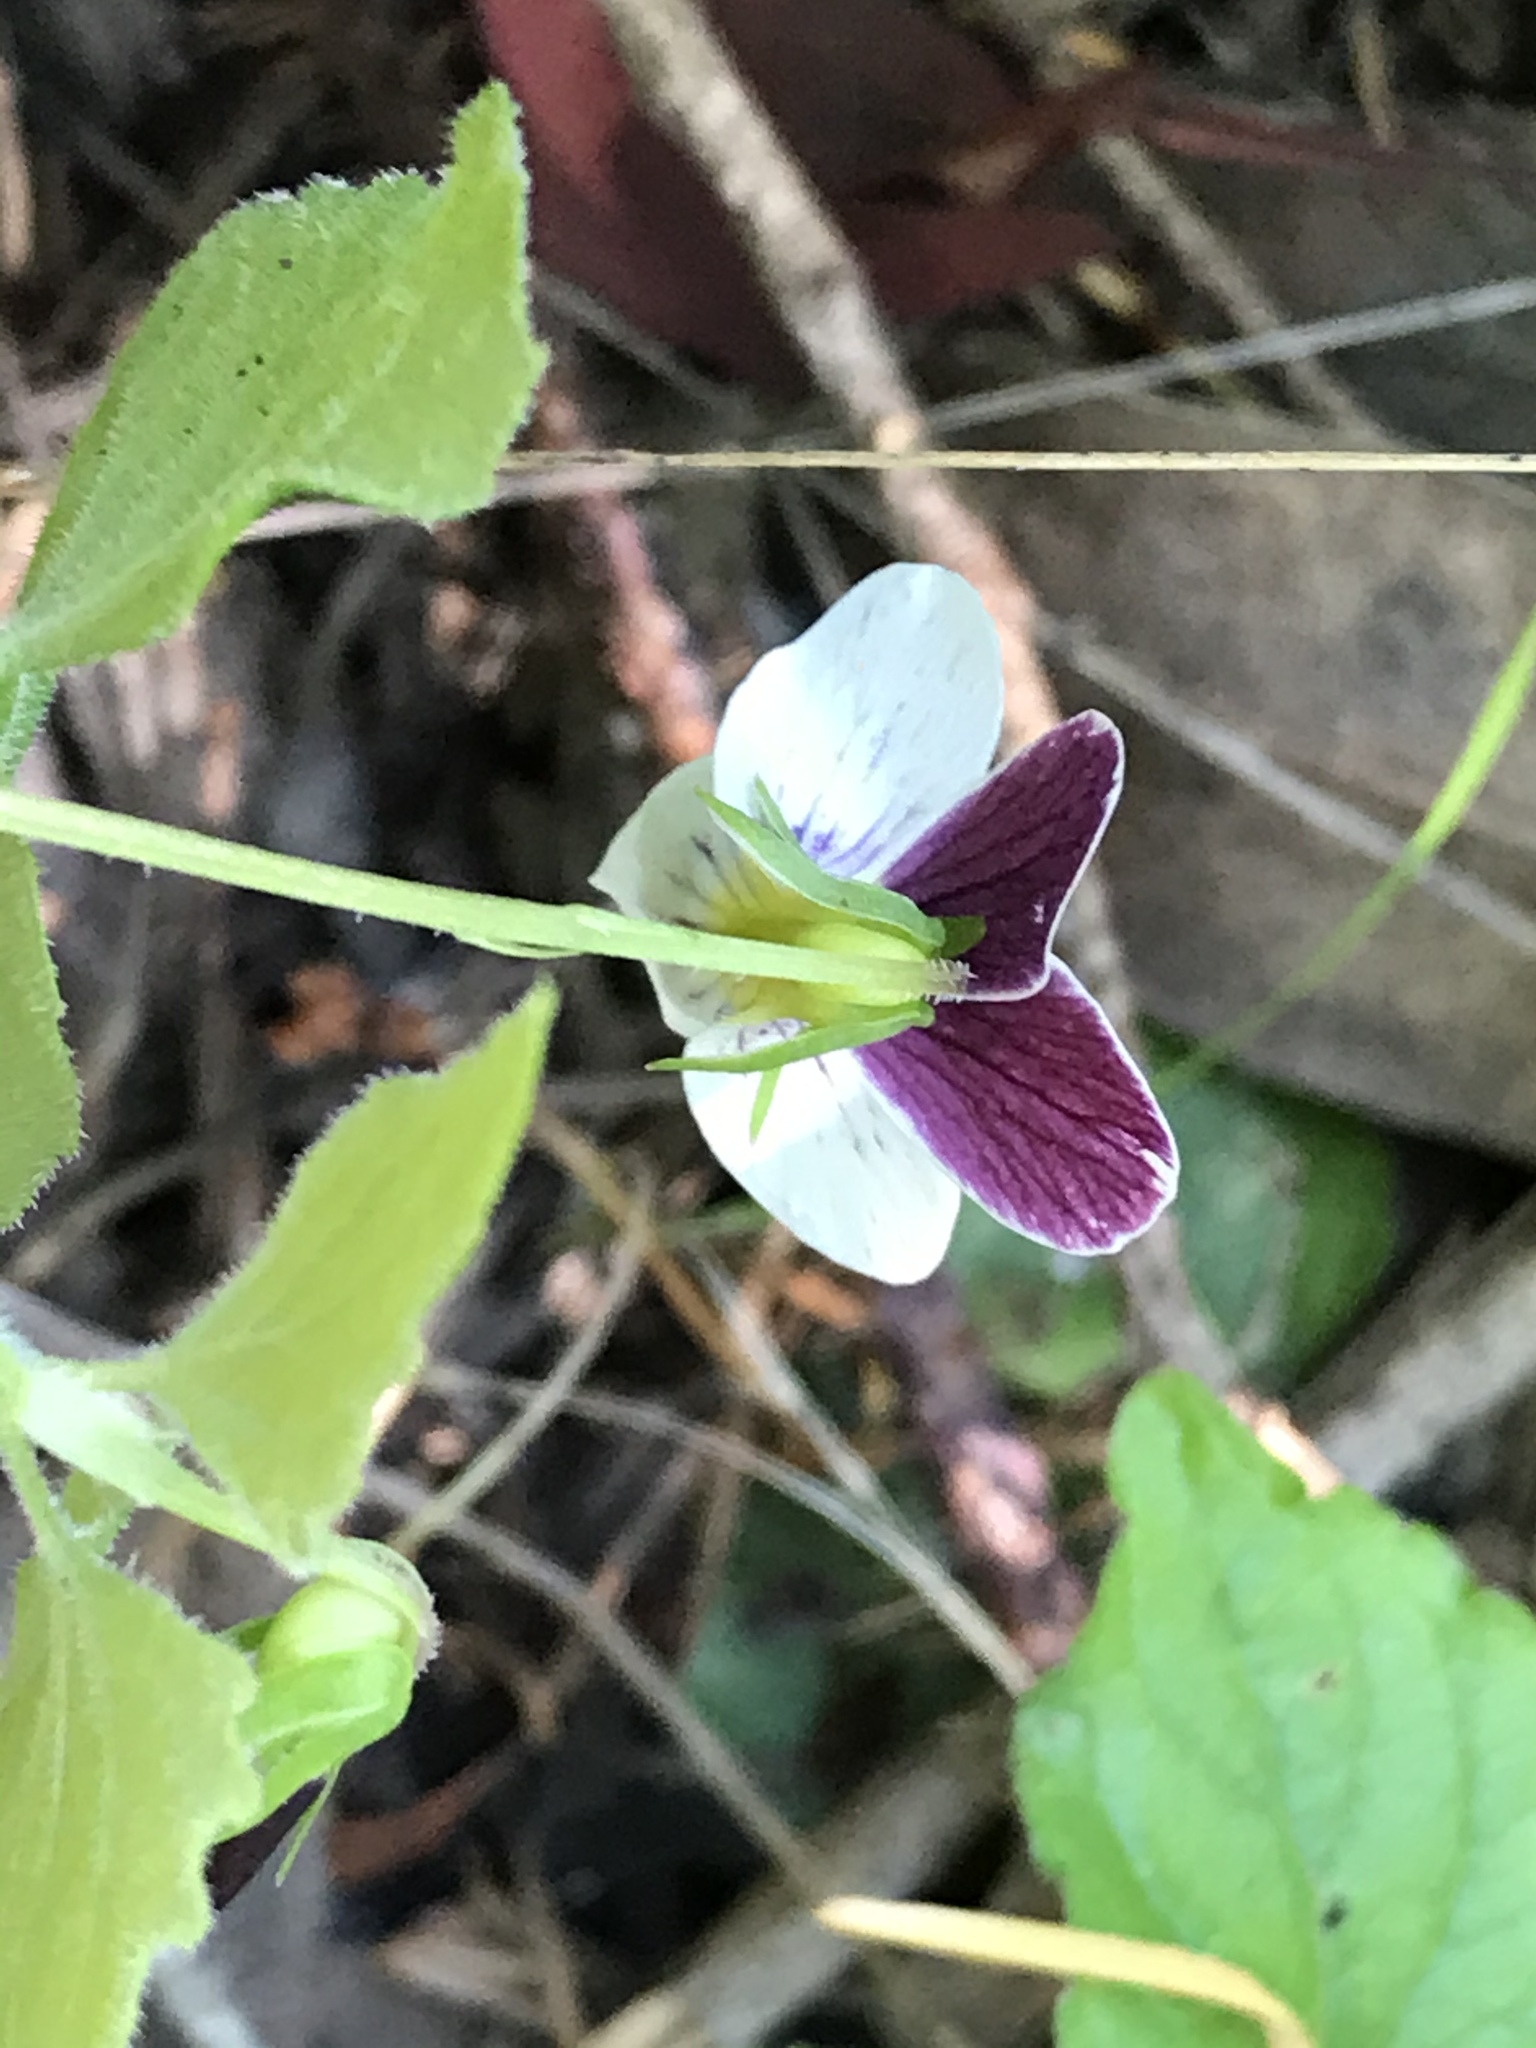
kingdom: Plantae
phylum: Tracheophyta
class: Magnoliopsida
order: Malpighiales
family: Violaceae
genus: Viola
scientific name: Viola ocellata
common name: Western heart's ease
